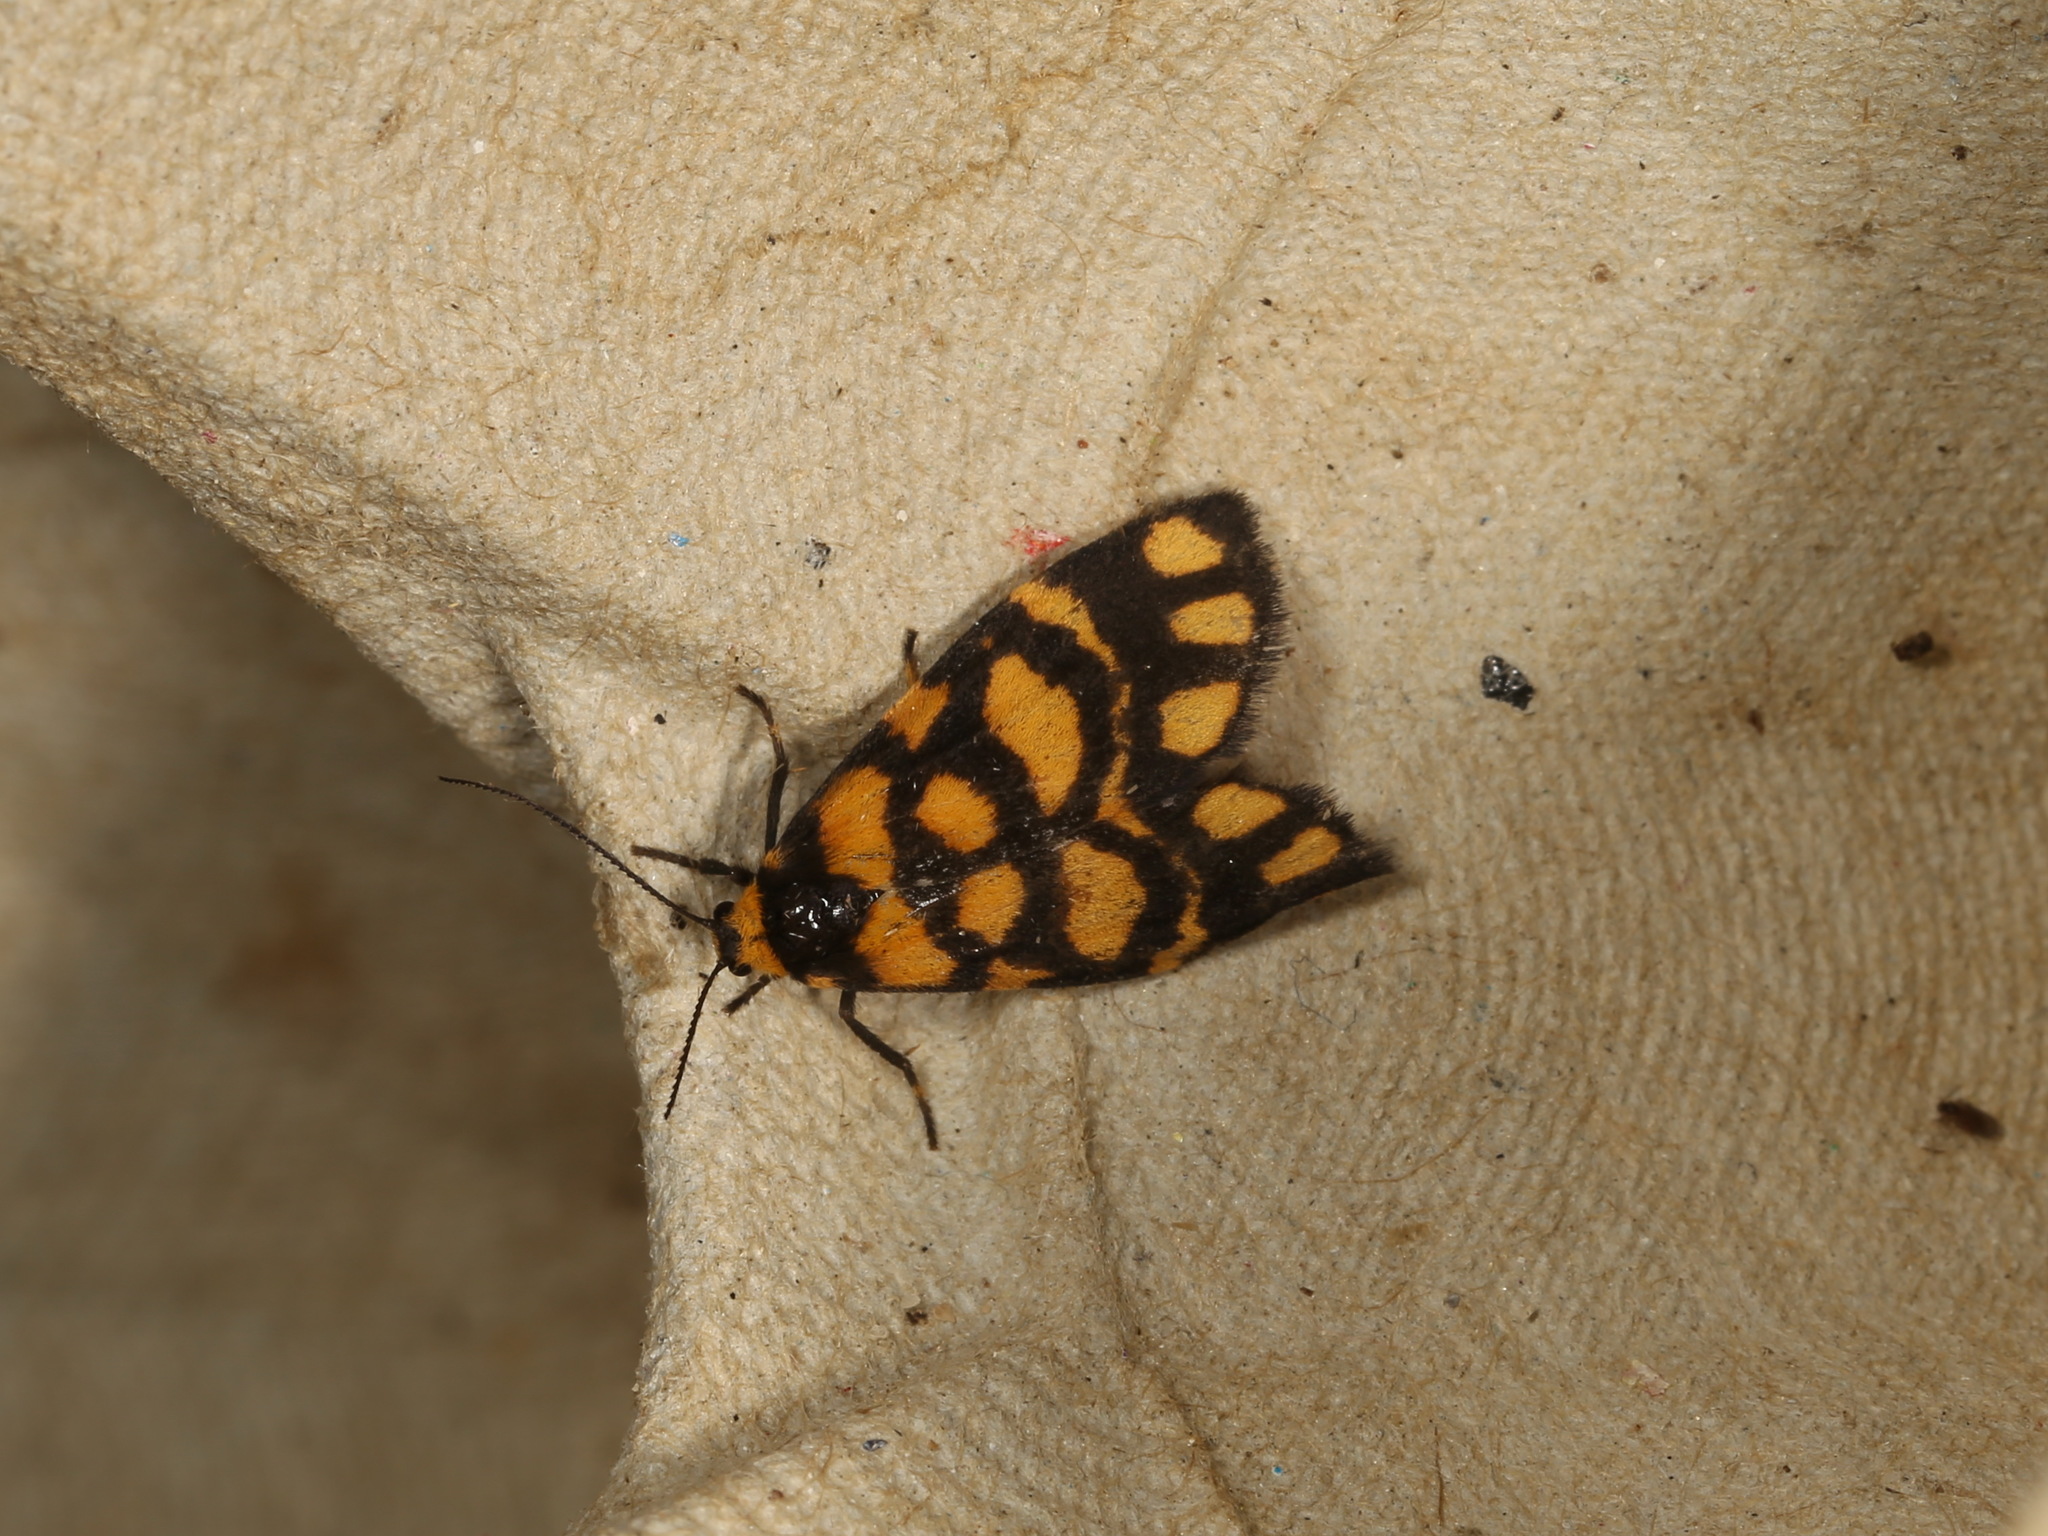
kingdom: Animalia
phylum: Arthropoda
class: Insecta
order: Lepidoptera
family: Erebidae
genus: Asura
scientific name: Asura lydia
